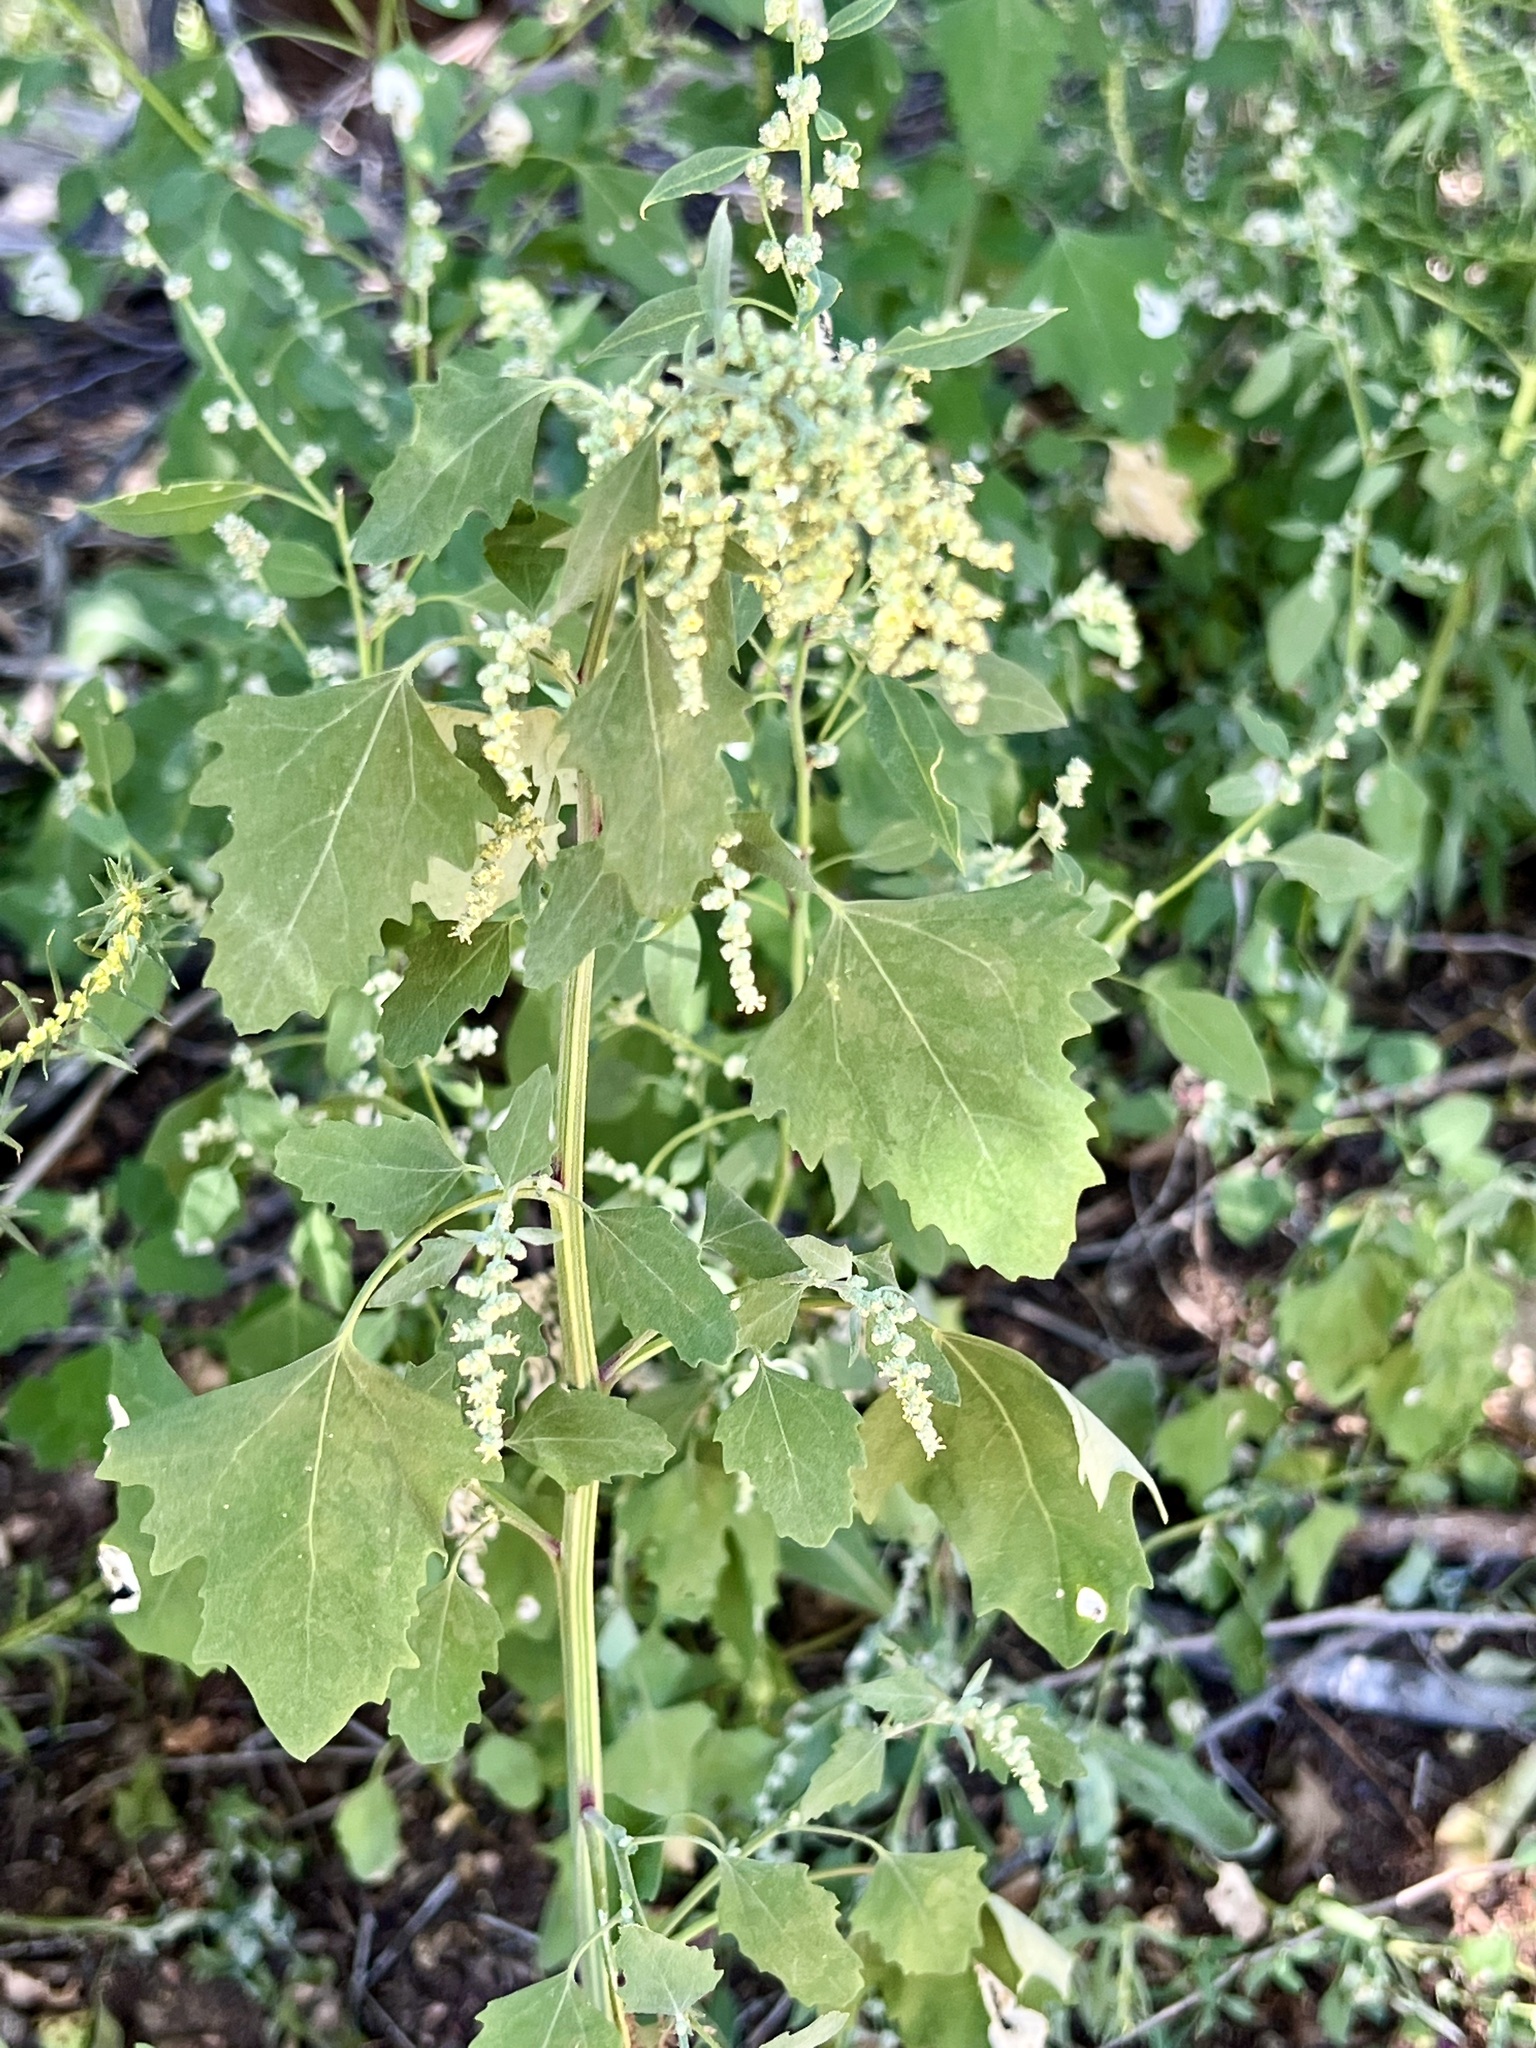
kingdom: Plantae
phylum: Tracheophyta
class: Magnoliopsida
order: Caryophyllales
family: Amaranthaceae
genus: Chenopodium
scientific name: Chenopodium album
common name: Fat-hen
